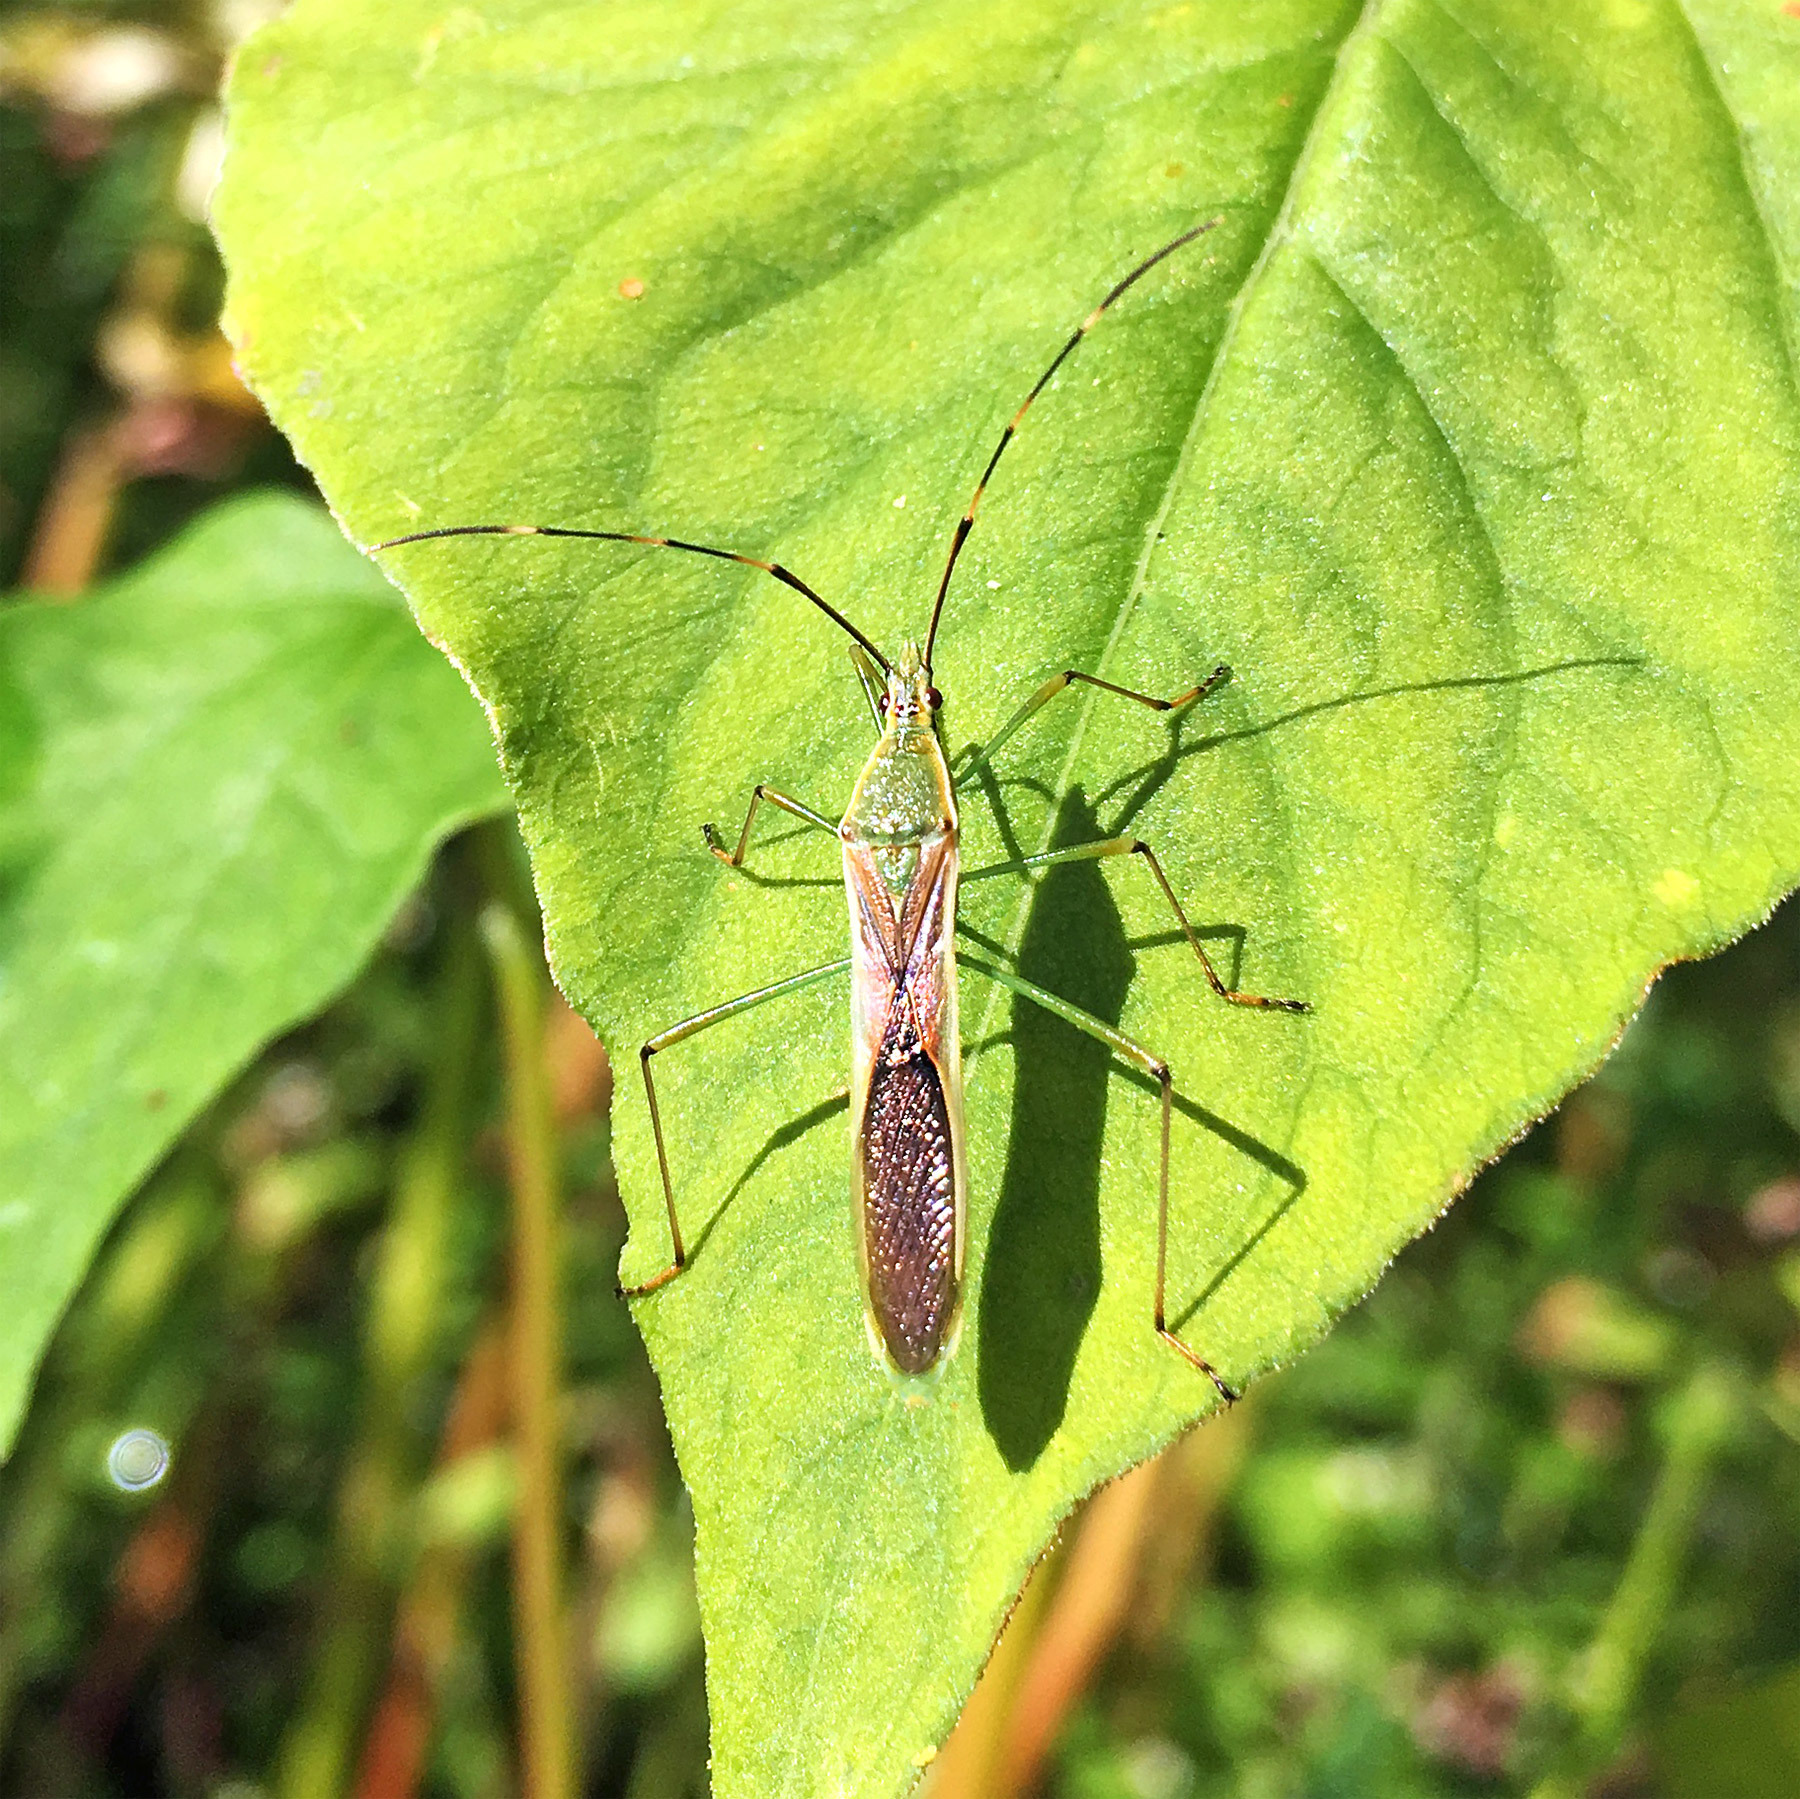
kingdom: Animalia
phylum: Arthropoda
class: Insecta
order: Hemiptera
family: Alydidae
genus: Leptocorisa
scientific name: Leptocorisa chinensis
